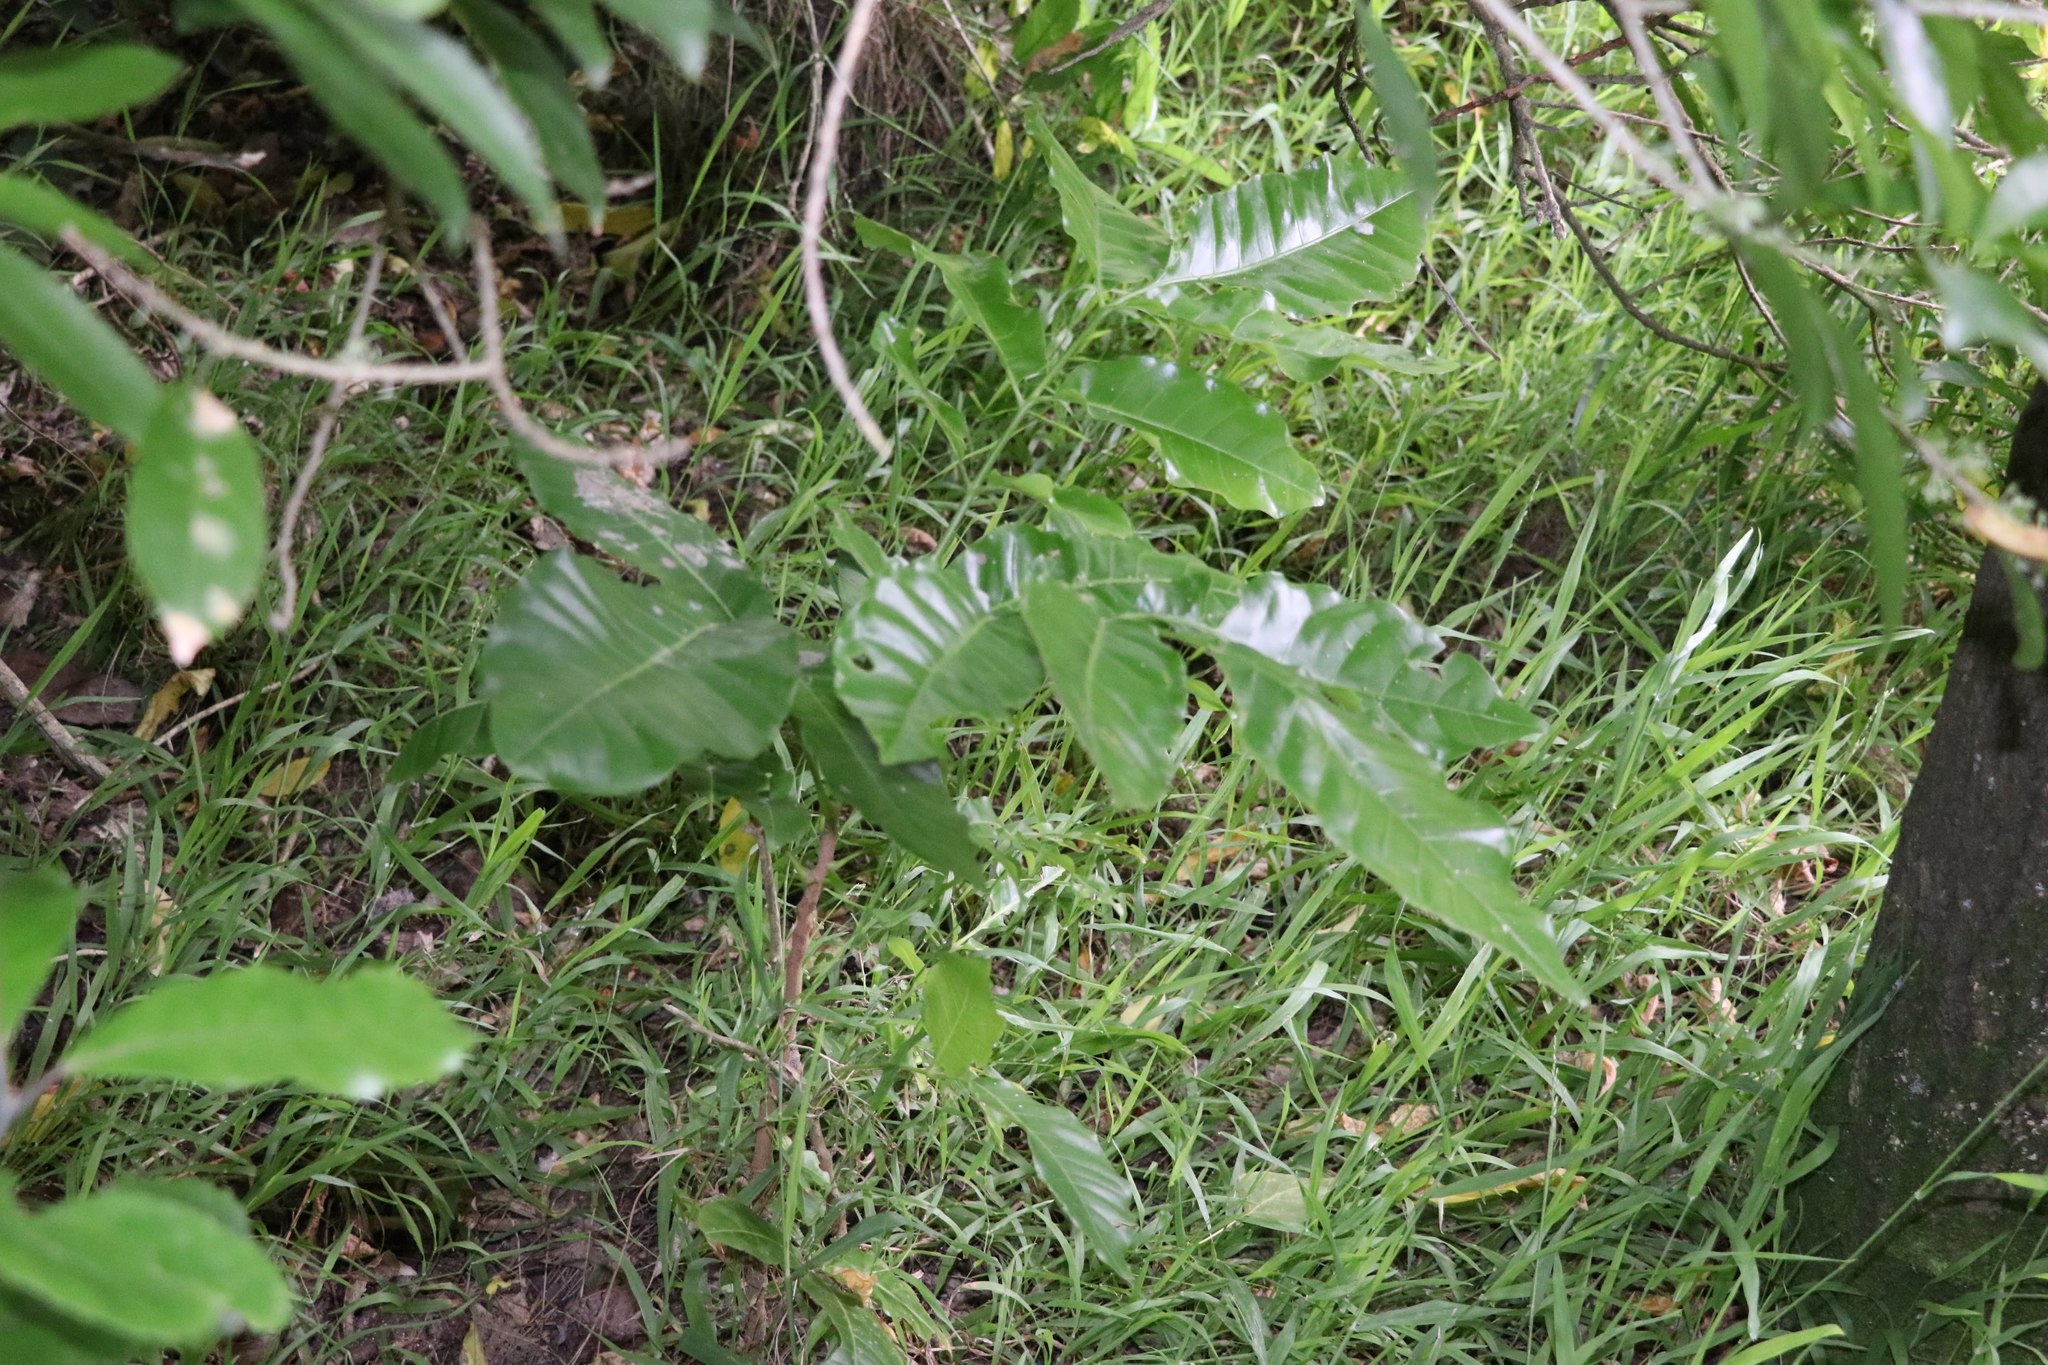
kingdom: Plantae
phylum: Tracheophyta
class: Magnoliopsida
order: Sapindales
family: Meliaceae
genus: Didymocheton
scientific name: Didymocheton spectabilis
